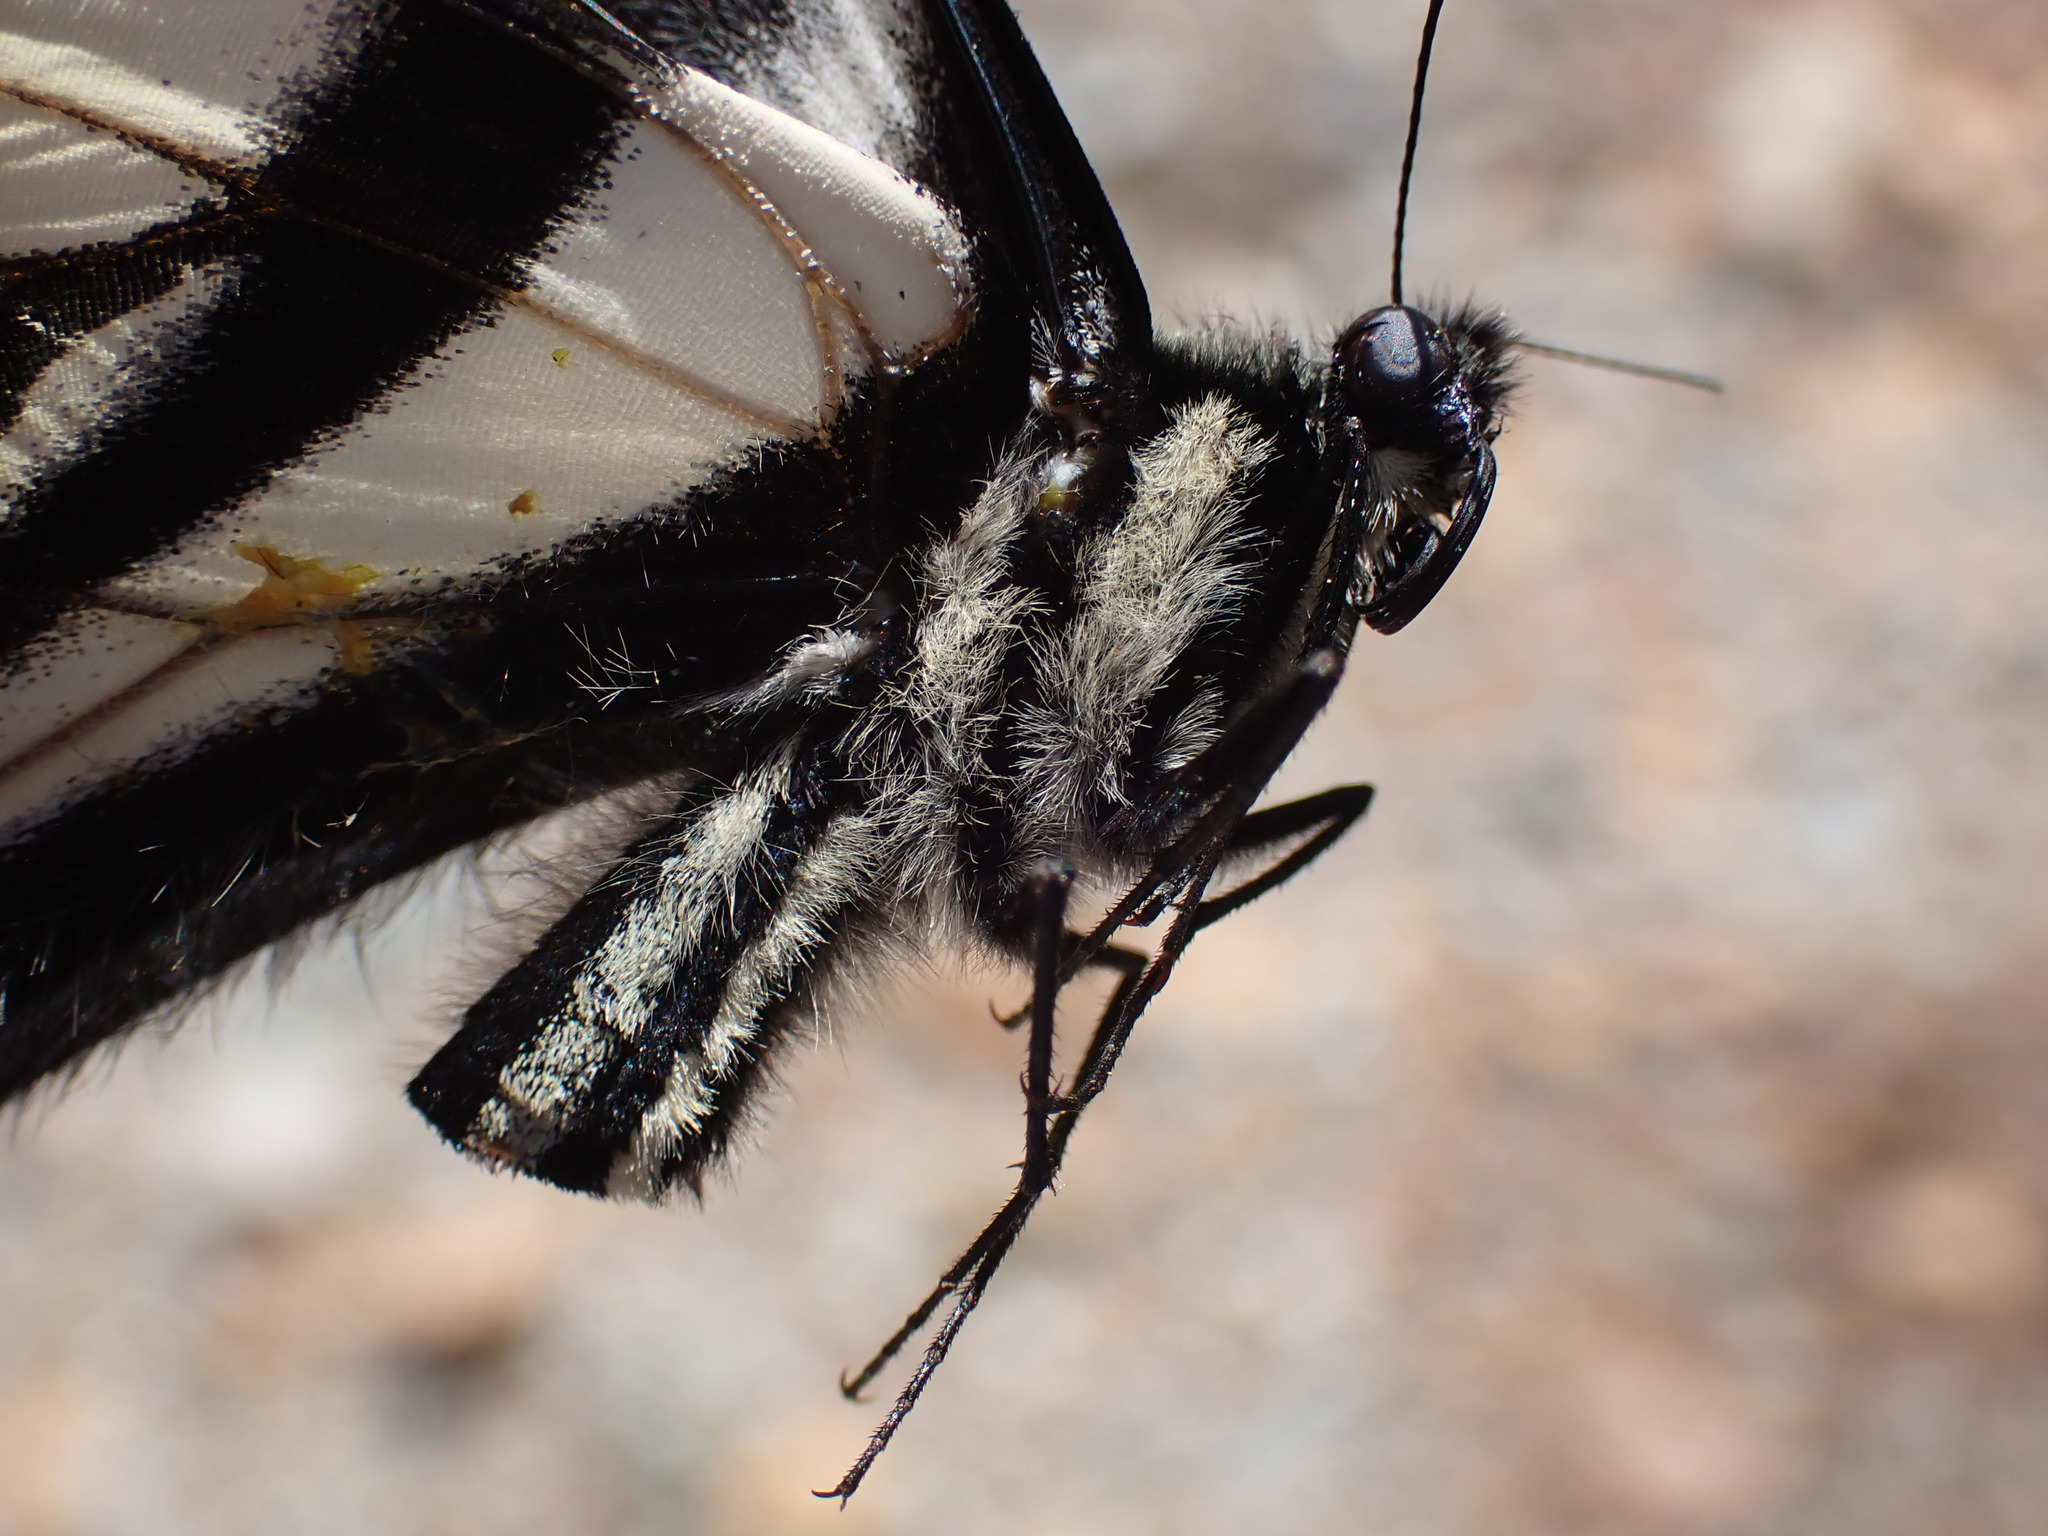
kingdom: Animalia
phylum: Arthropoda
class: Insecta
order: Lepidoptera
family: Papilionidae
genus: Papilio
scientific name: Papilio eurymedon
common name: Pale tiger swallowtail
